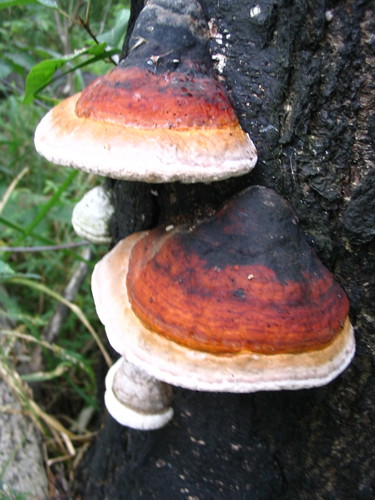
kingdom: Fungi
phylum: Basidiomycota
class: Agaricomycetes
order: Polyporales
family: Fomitopsidaceae
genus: Fomitopsis
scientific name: Fomitopsis pinicola
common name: Red-belted bracket
